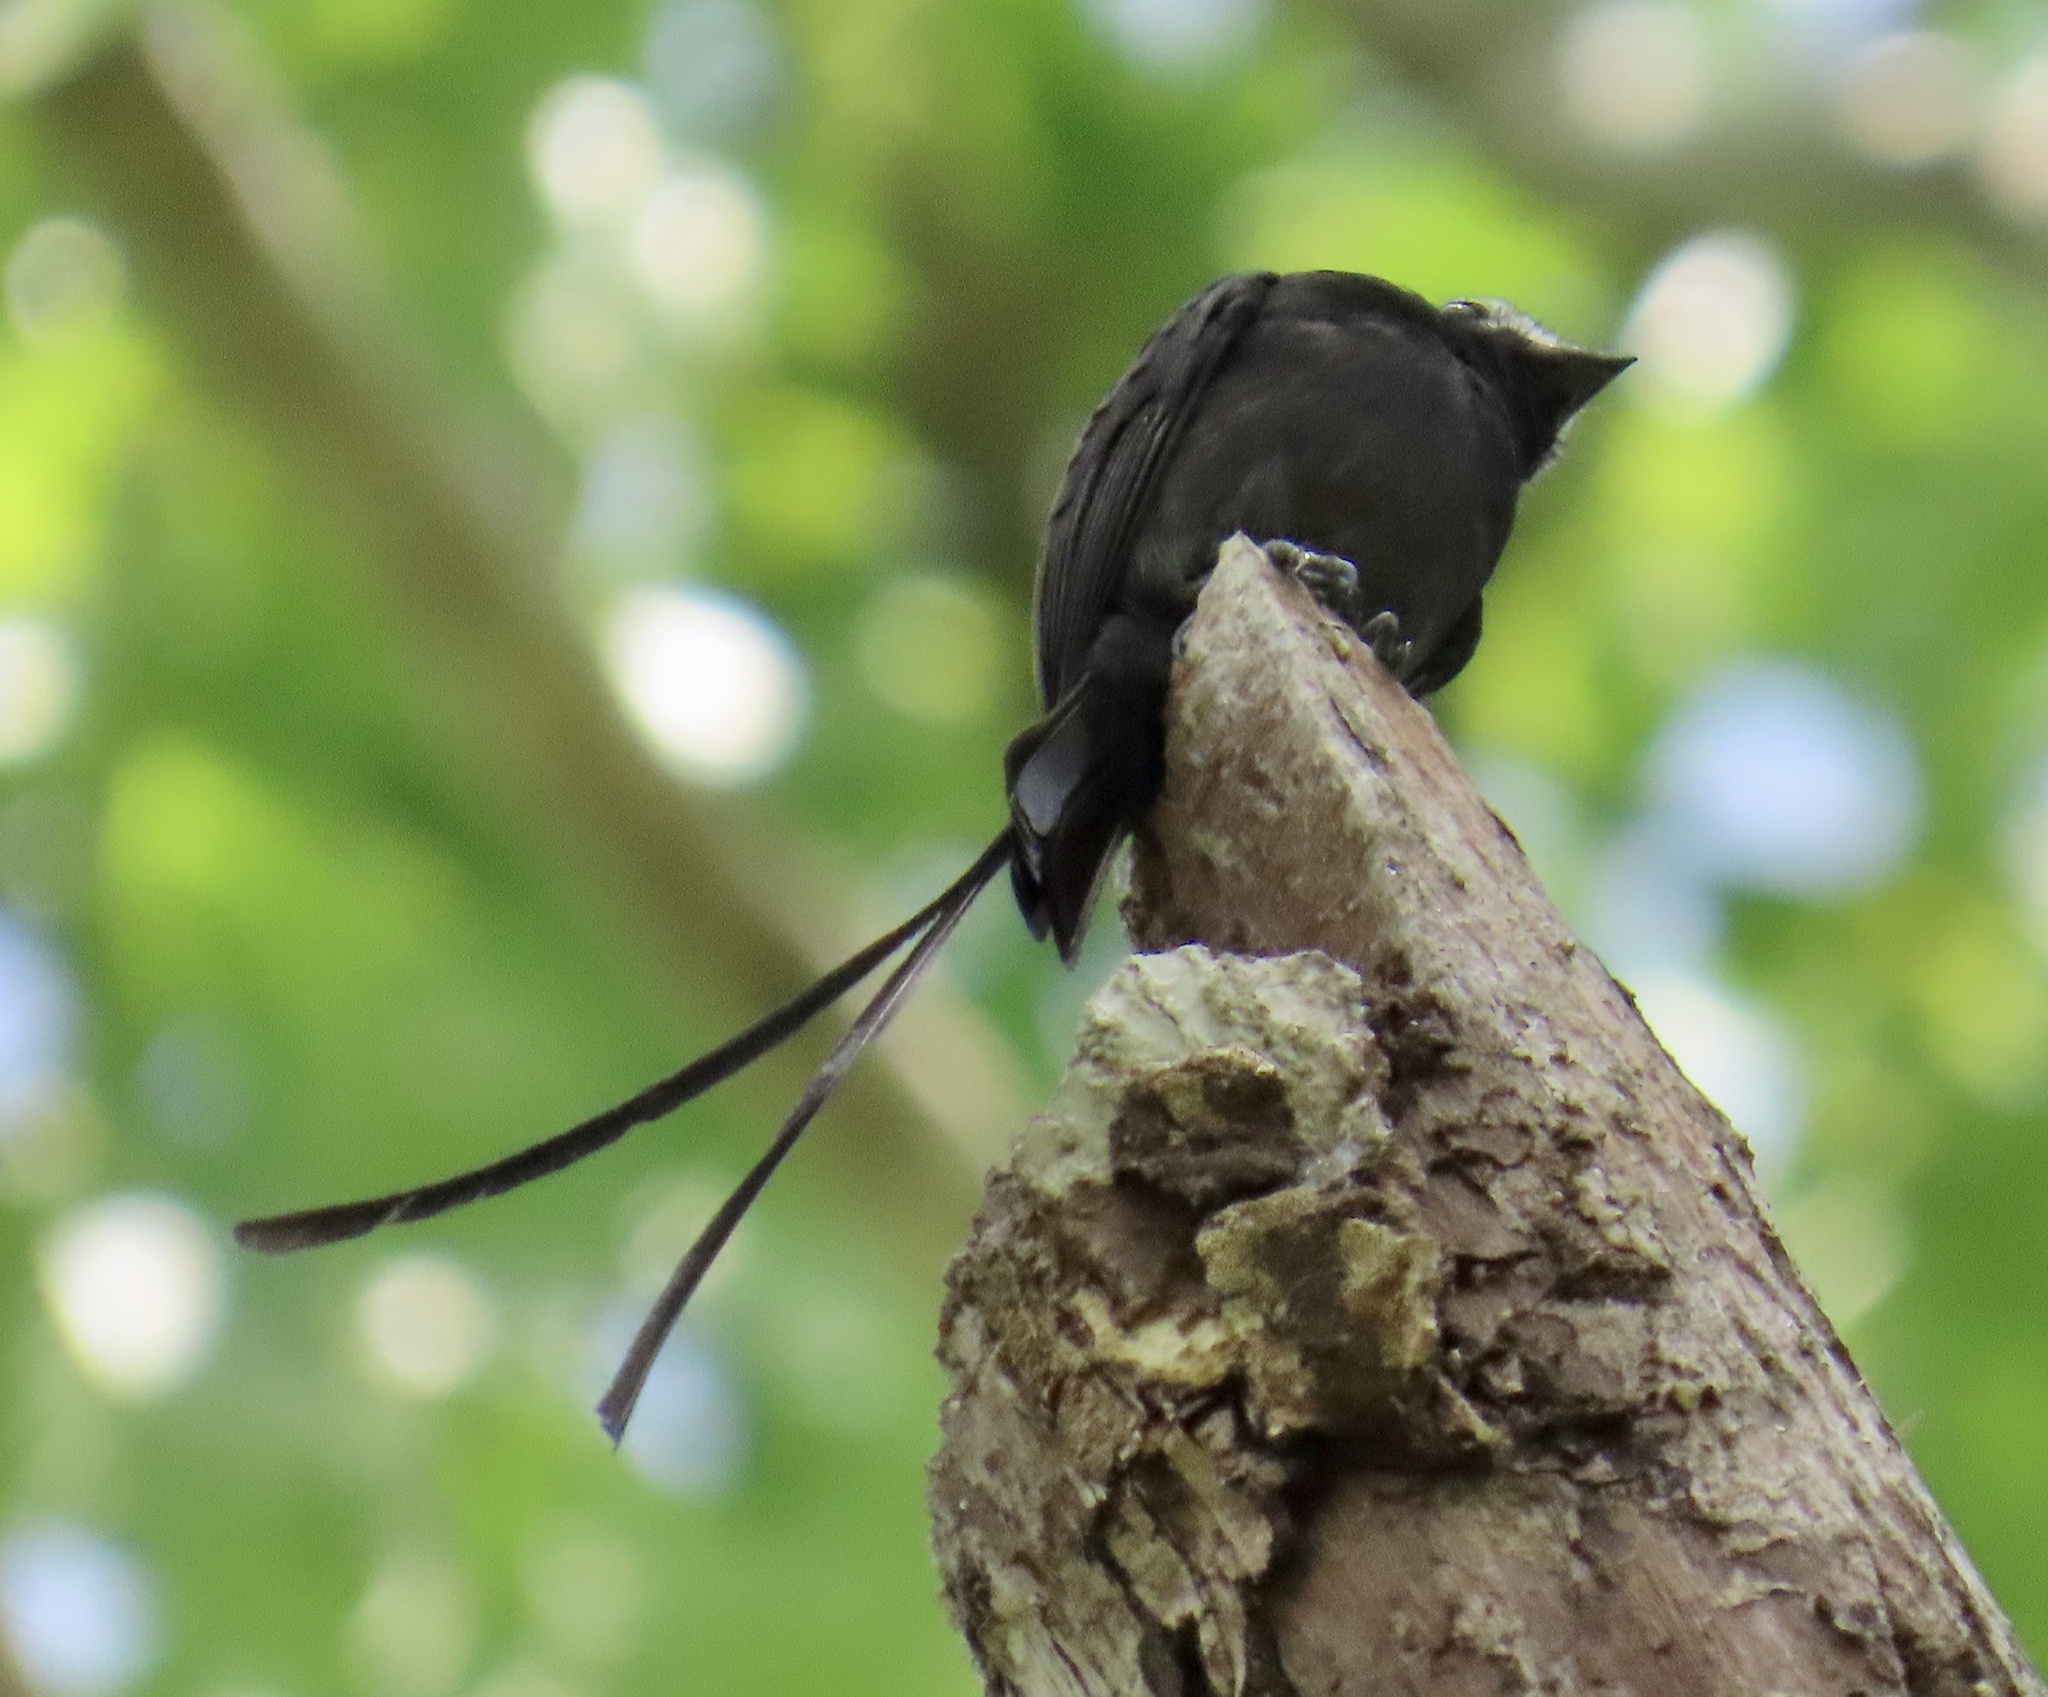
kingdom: Animalia
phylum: Chordata
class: Aves
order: Passeriformes
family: Tyrannidae
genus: Colonia
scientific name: Colonia colonus
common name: Long-tailed tyrant
